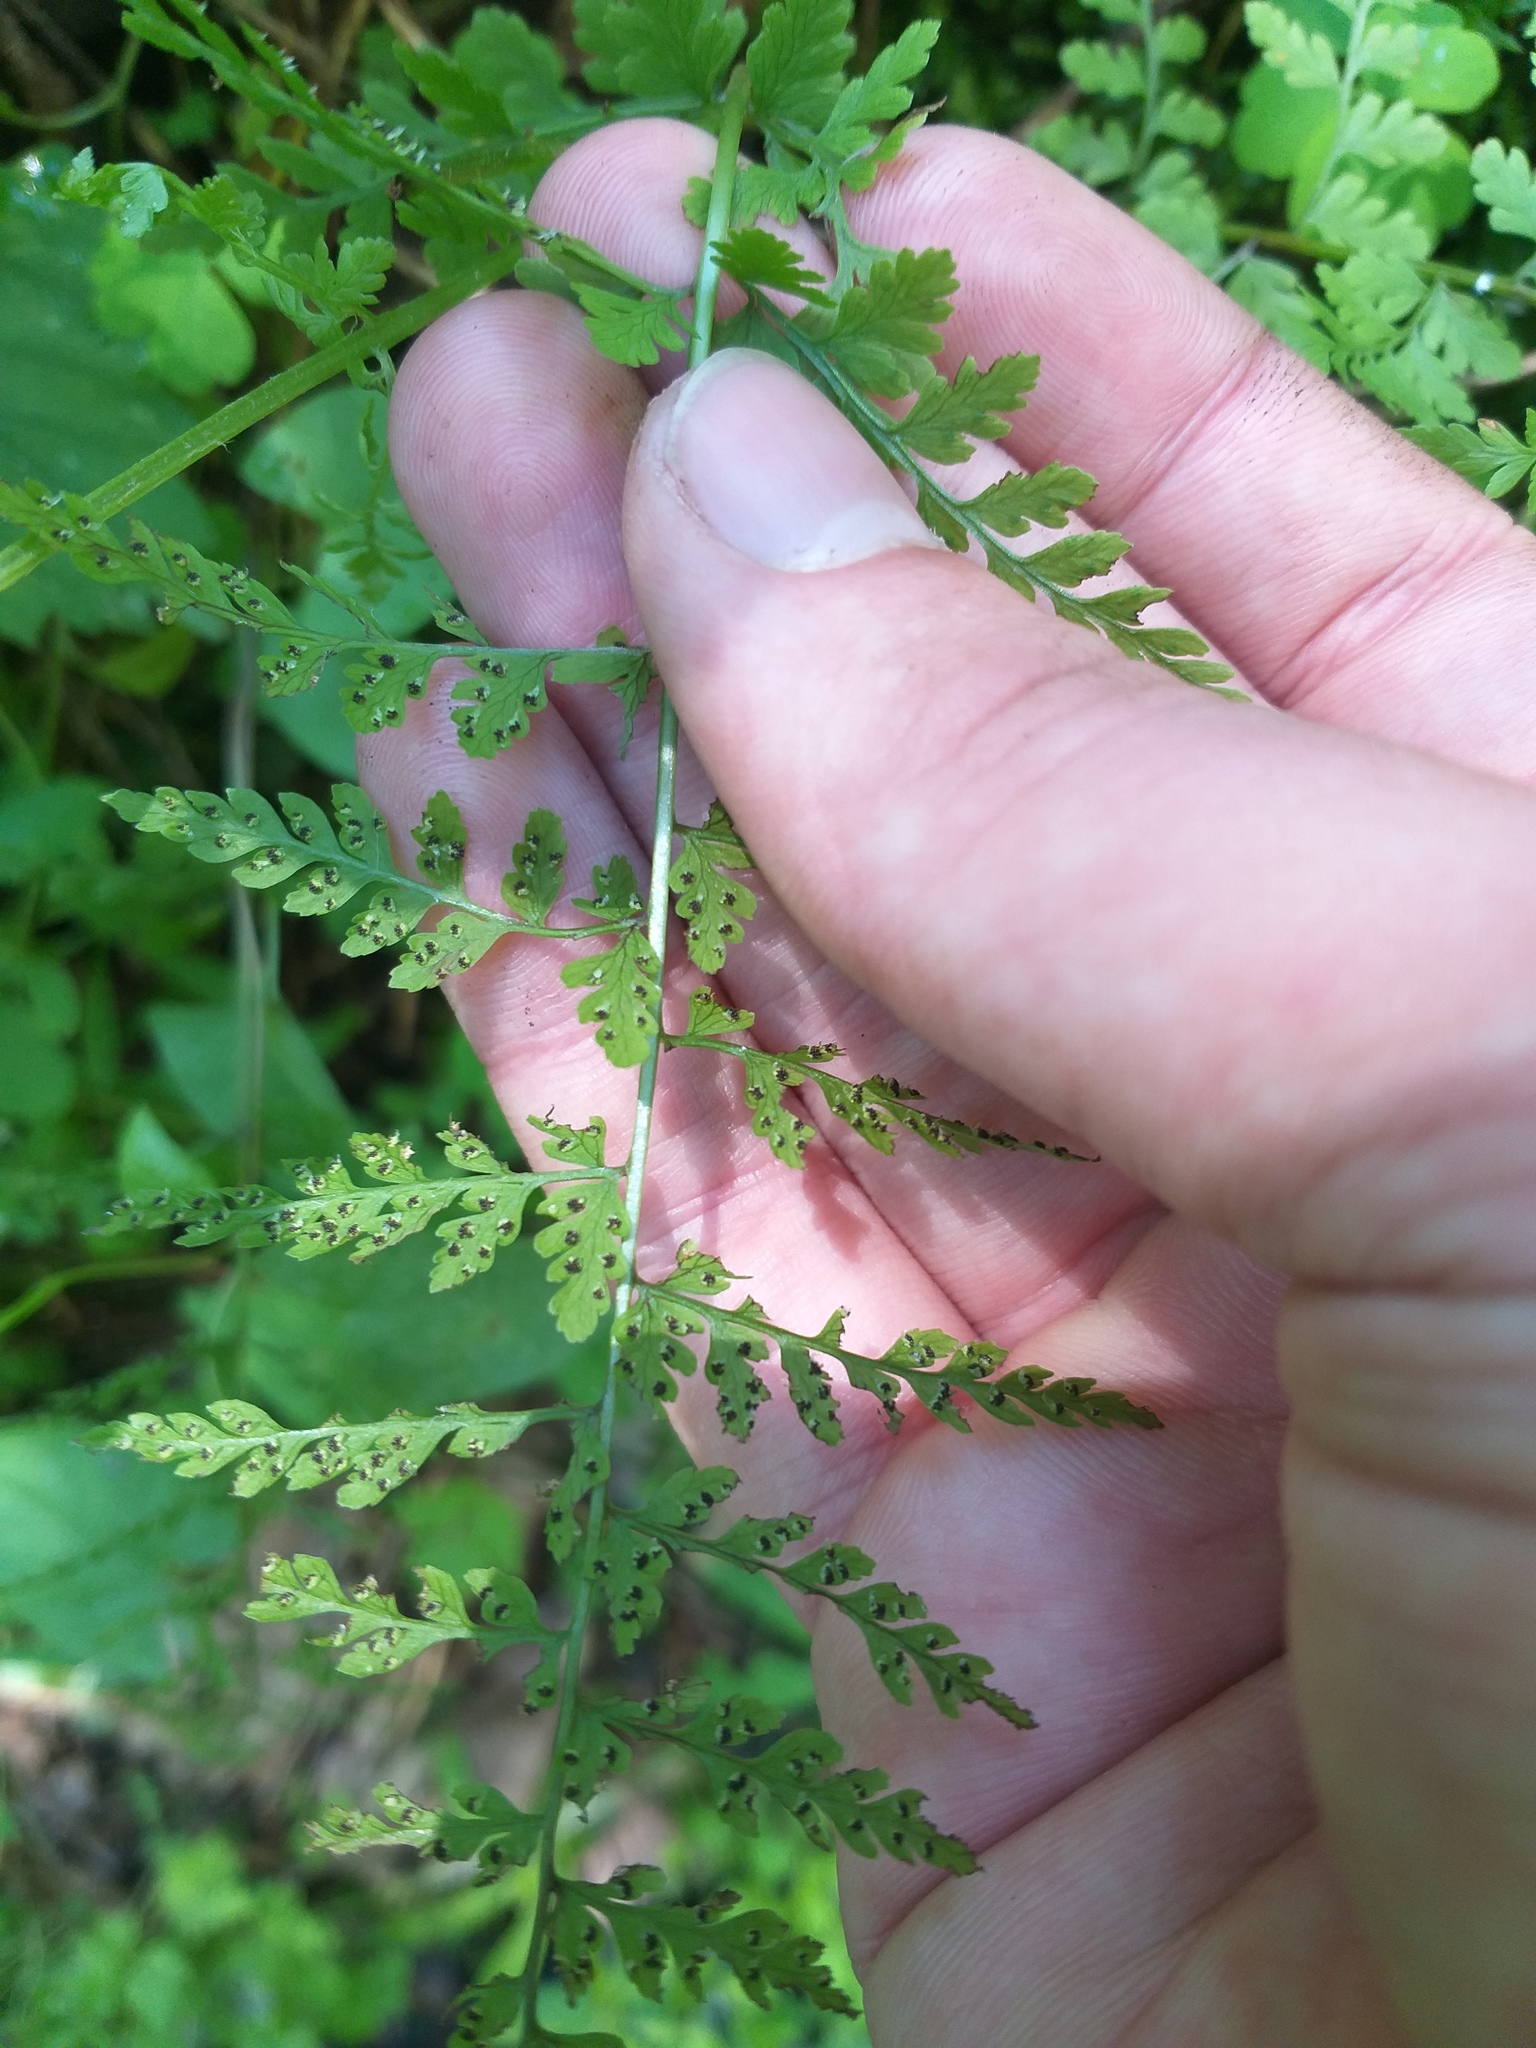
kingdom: Plantae
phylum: Tracheophyta
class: Polypodiopsida
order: Polypodiales
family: Cystopteridaceae
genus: Cystopteris
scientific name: Cystopteris fragilis
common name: Brittle bladder fern
